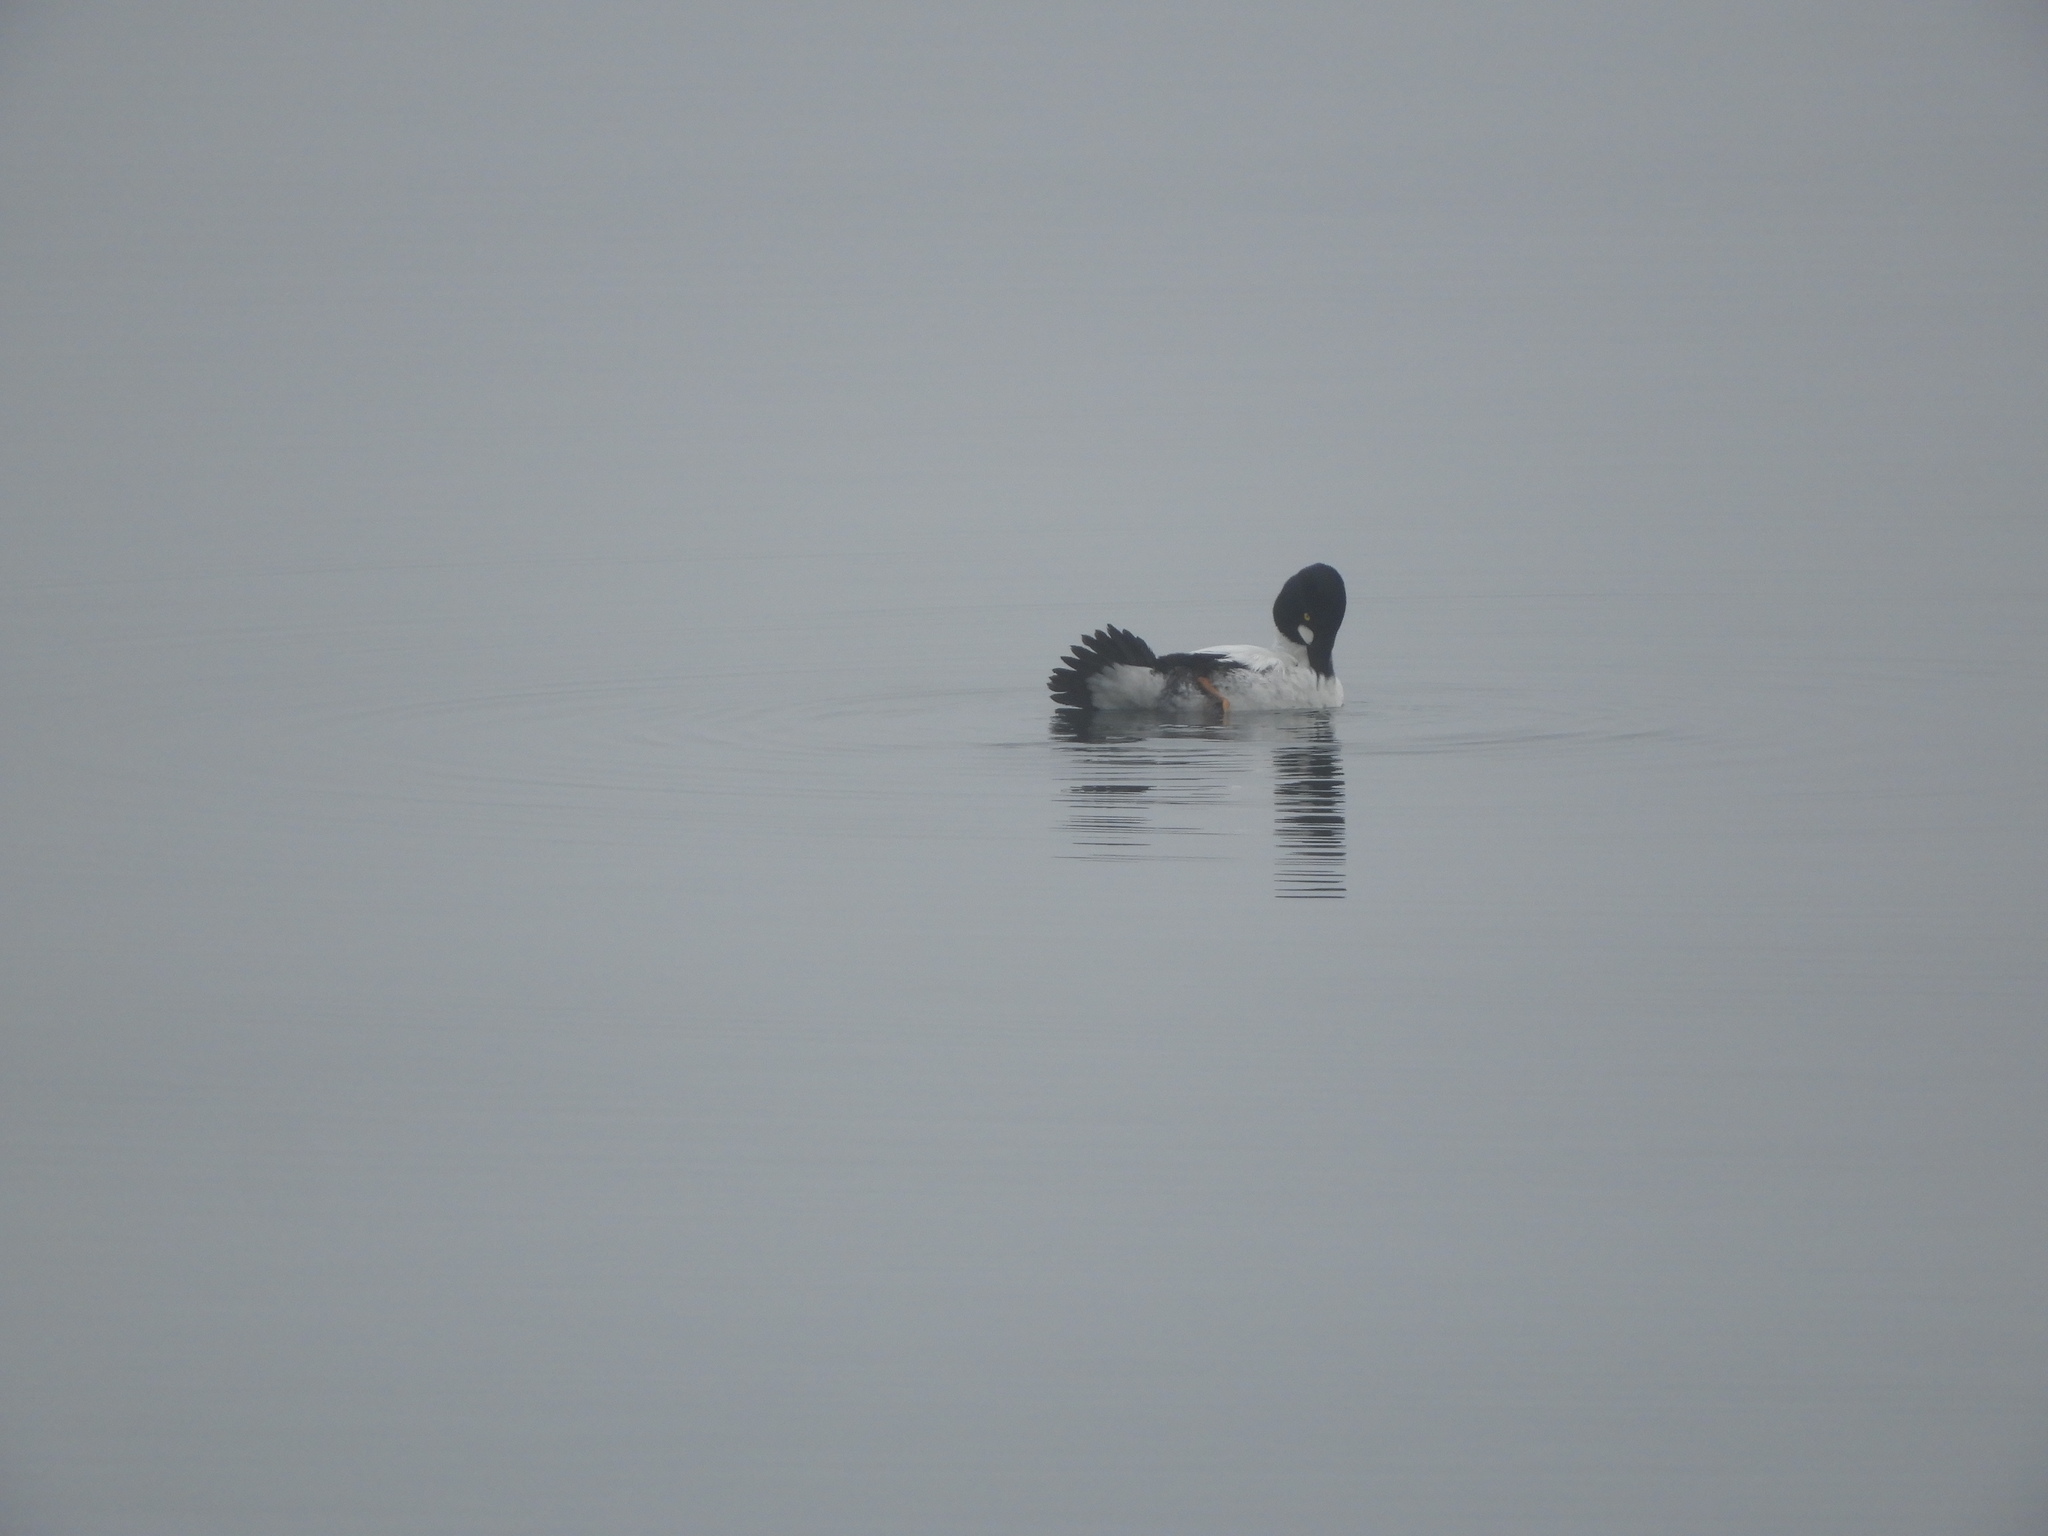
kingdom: Animalia
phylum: Chordata
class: Aves
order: Anseriformes
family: Anatidae
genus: Bucephala
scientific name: Bucephala clangula
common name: Common goldeneye
